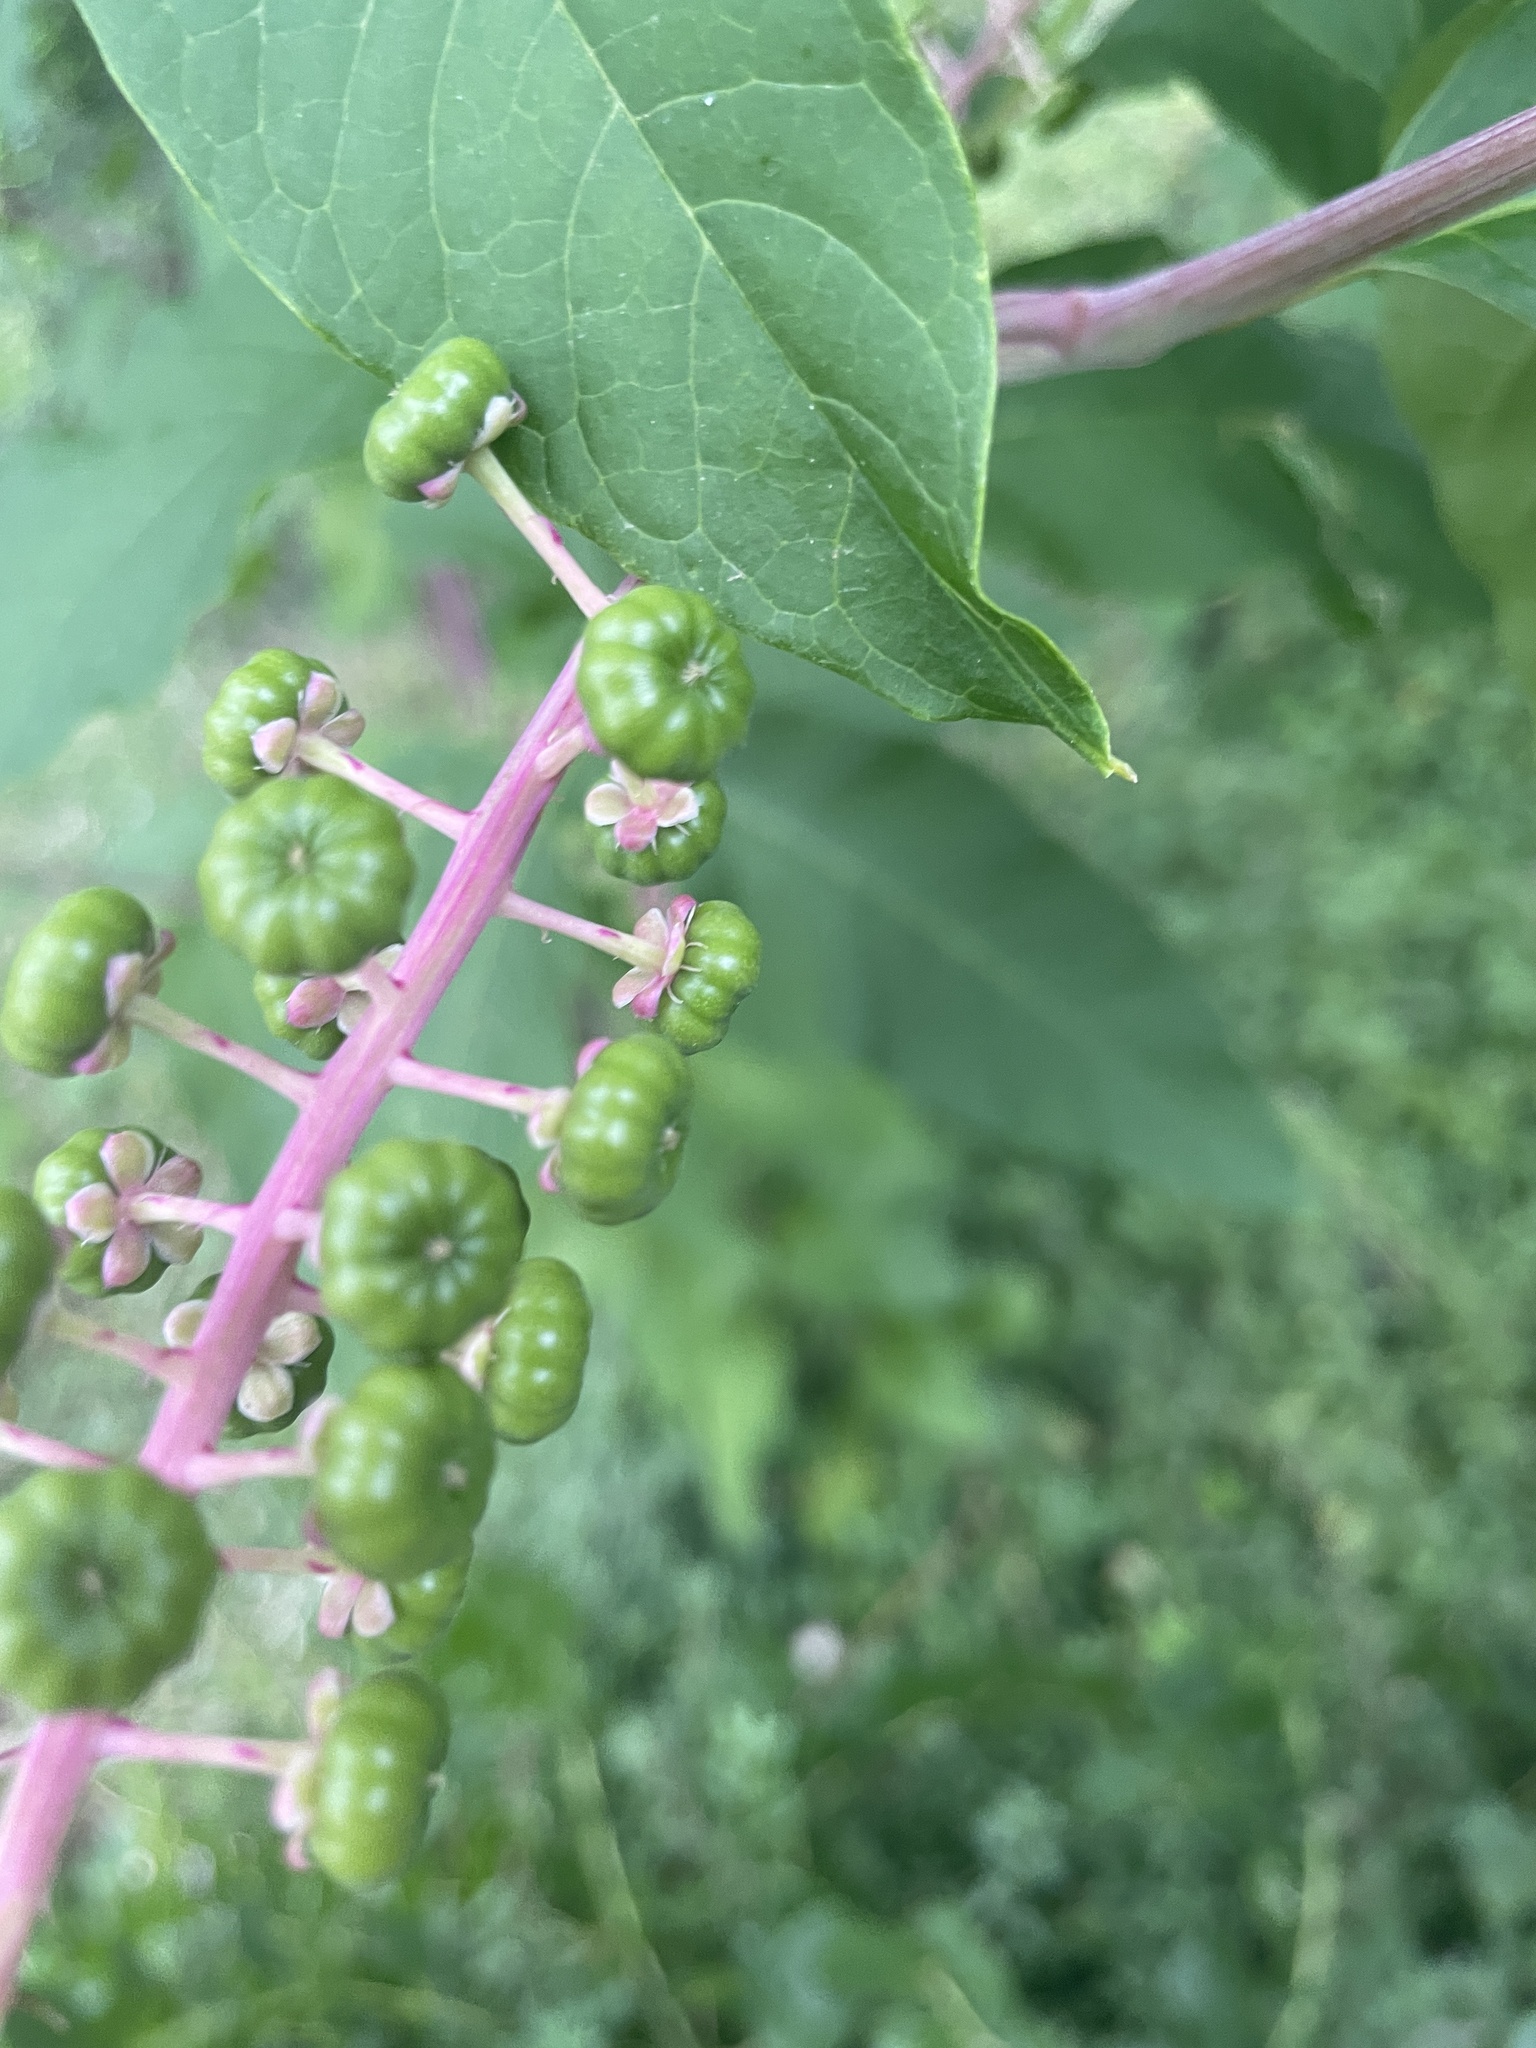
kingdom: Plantae
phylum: Tracheophyta
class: Magnoliopsida
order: Caryophyllales
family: Phytolaccaceae
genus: Phytolacca
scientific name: Phytolacca americana
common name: American pokeweed
